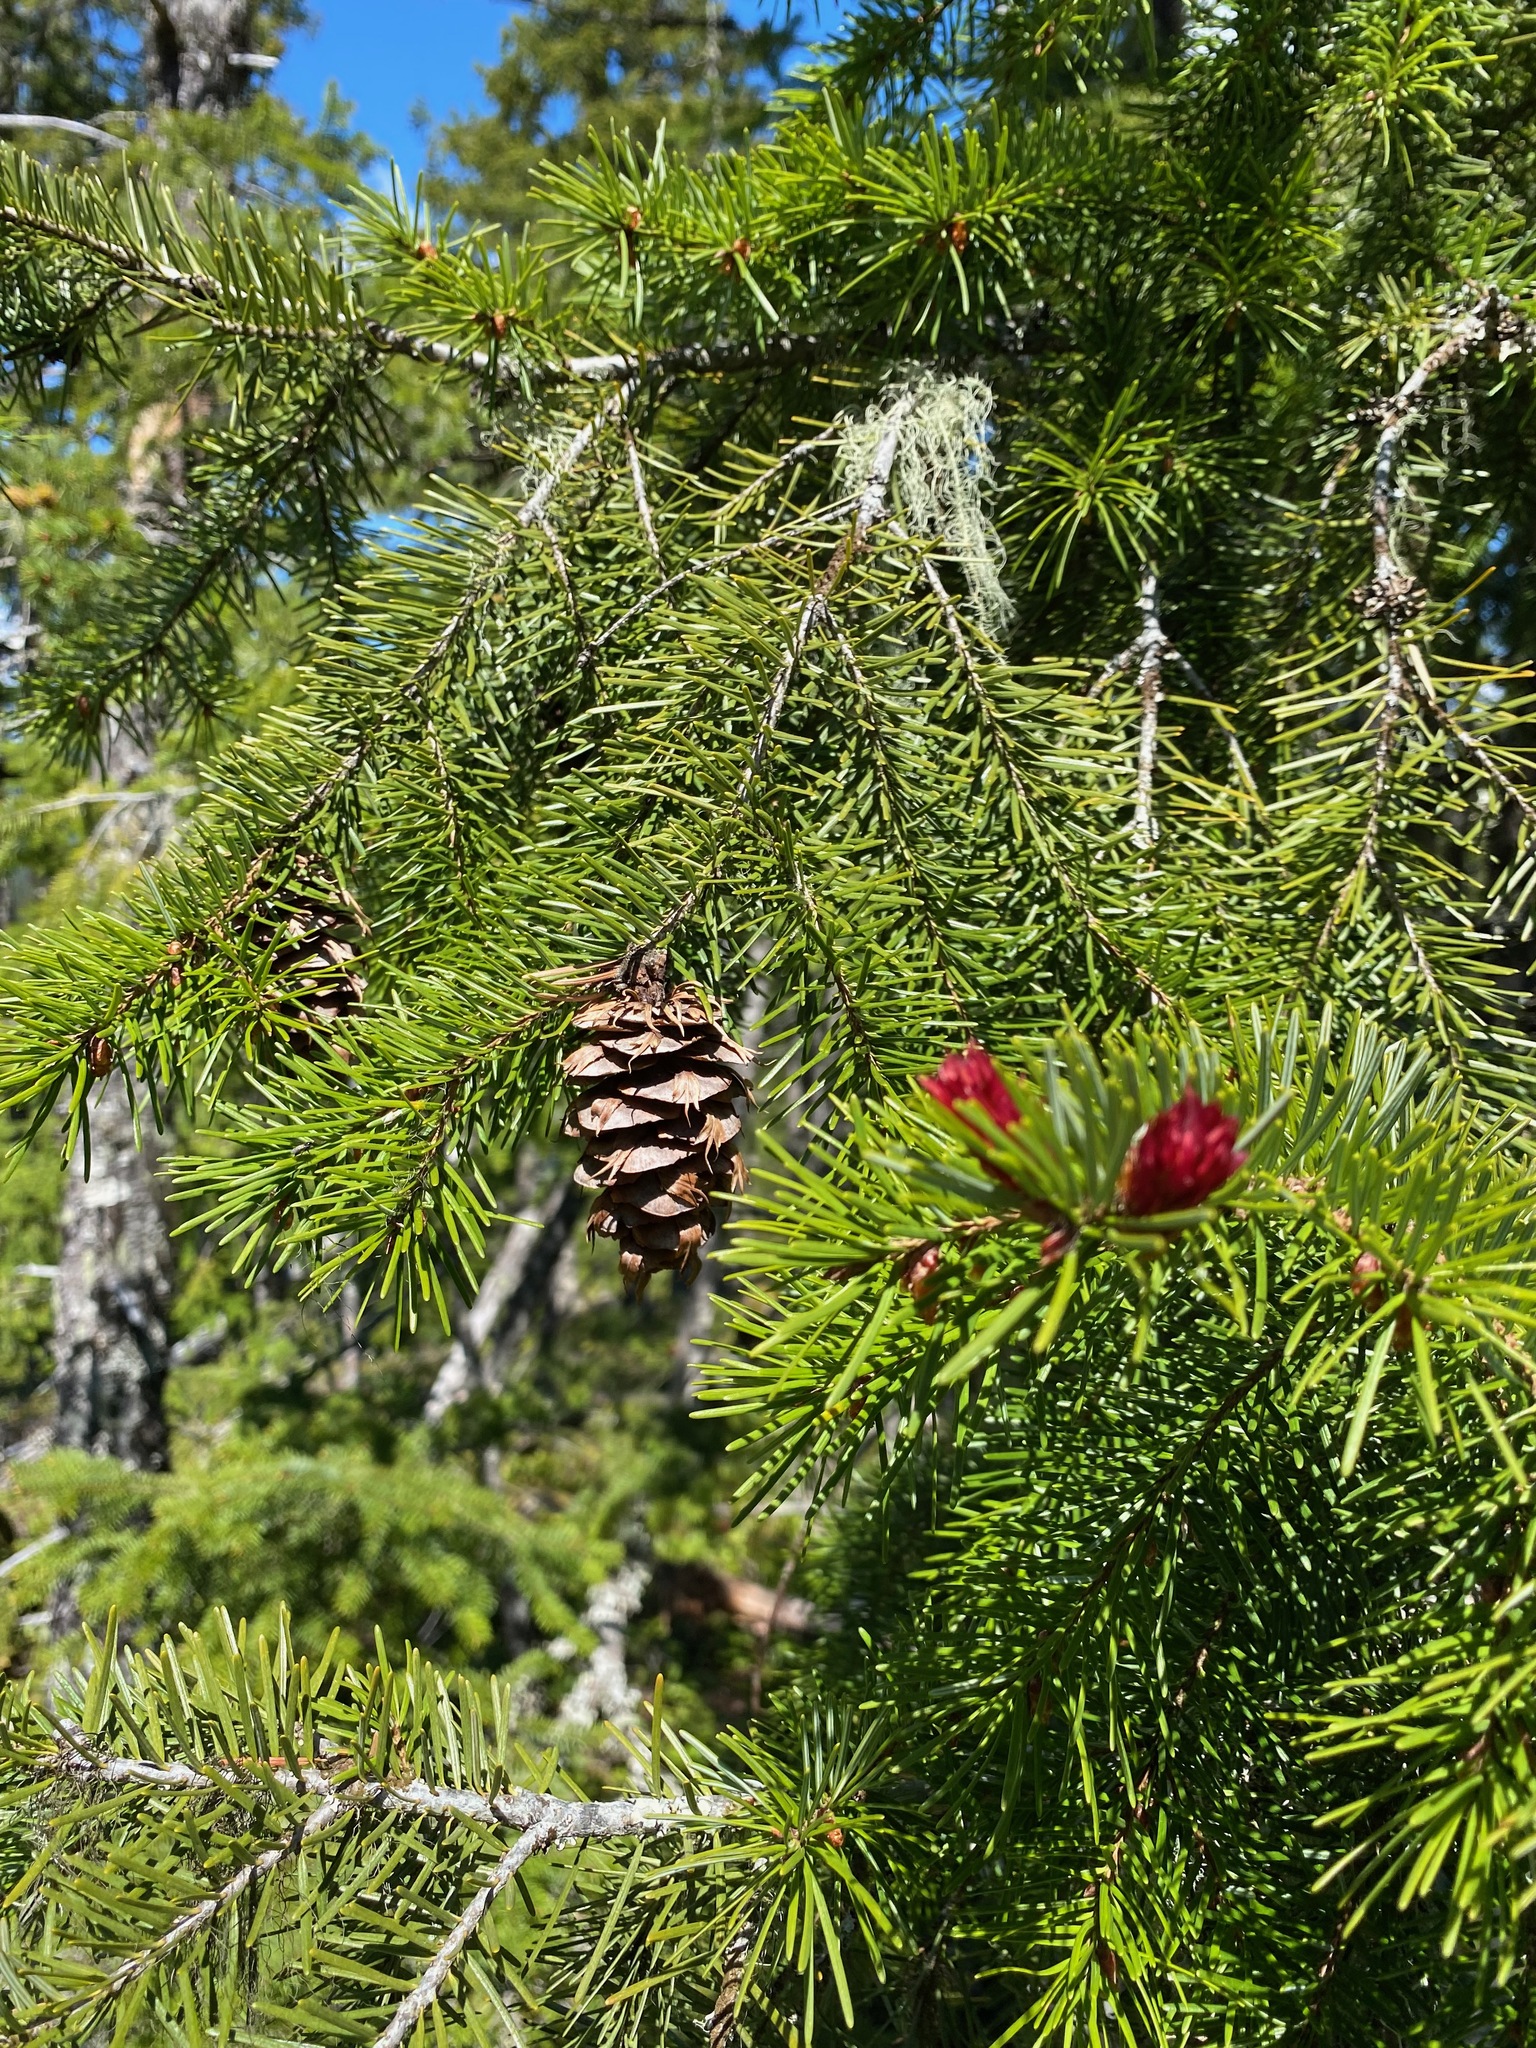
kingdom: Plantae
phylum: Tracheophyta
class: Pinopsida
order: Pinales
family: Pinaceae
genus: Pseudotsuga
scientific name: Pseudotsuga menziesii
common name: Douglas fir
